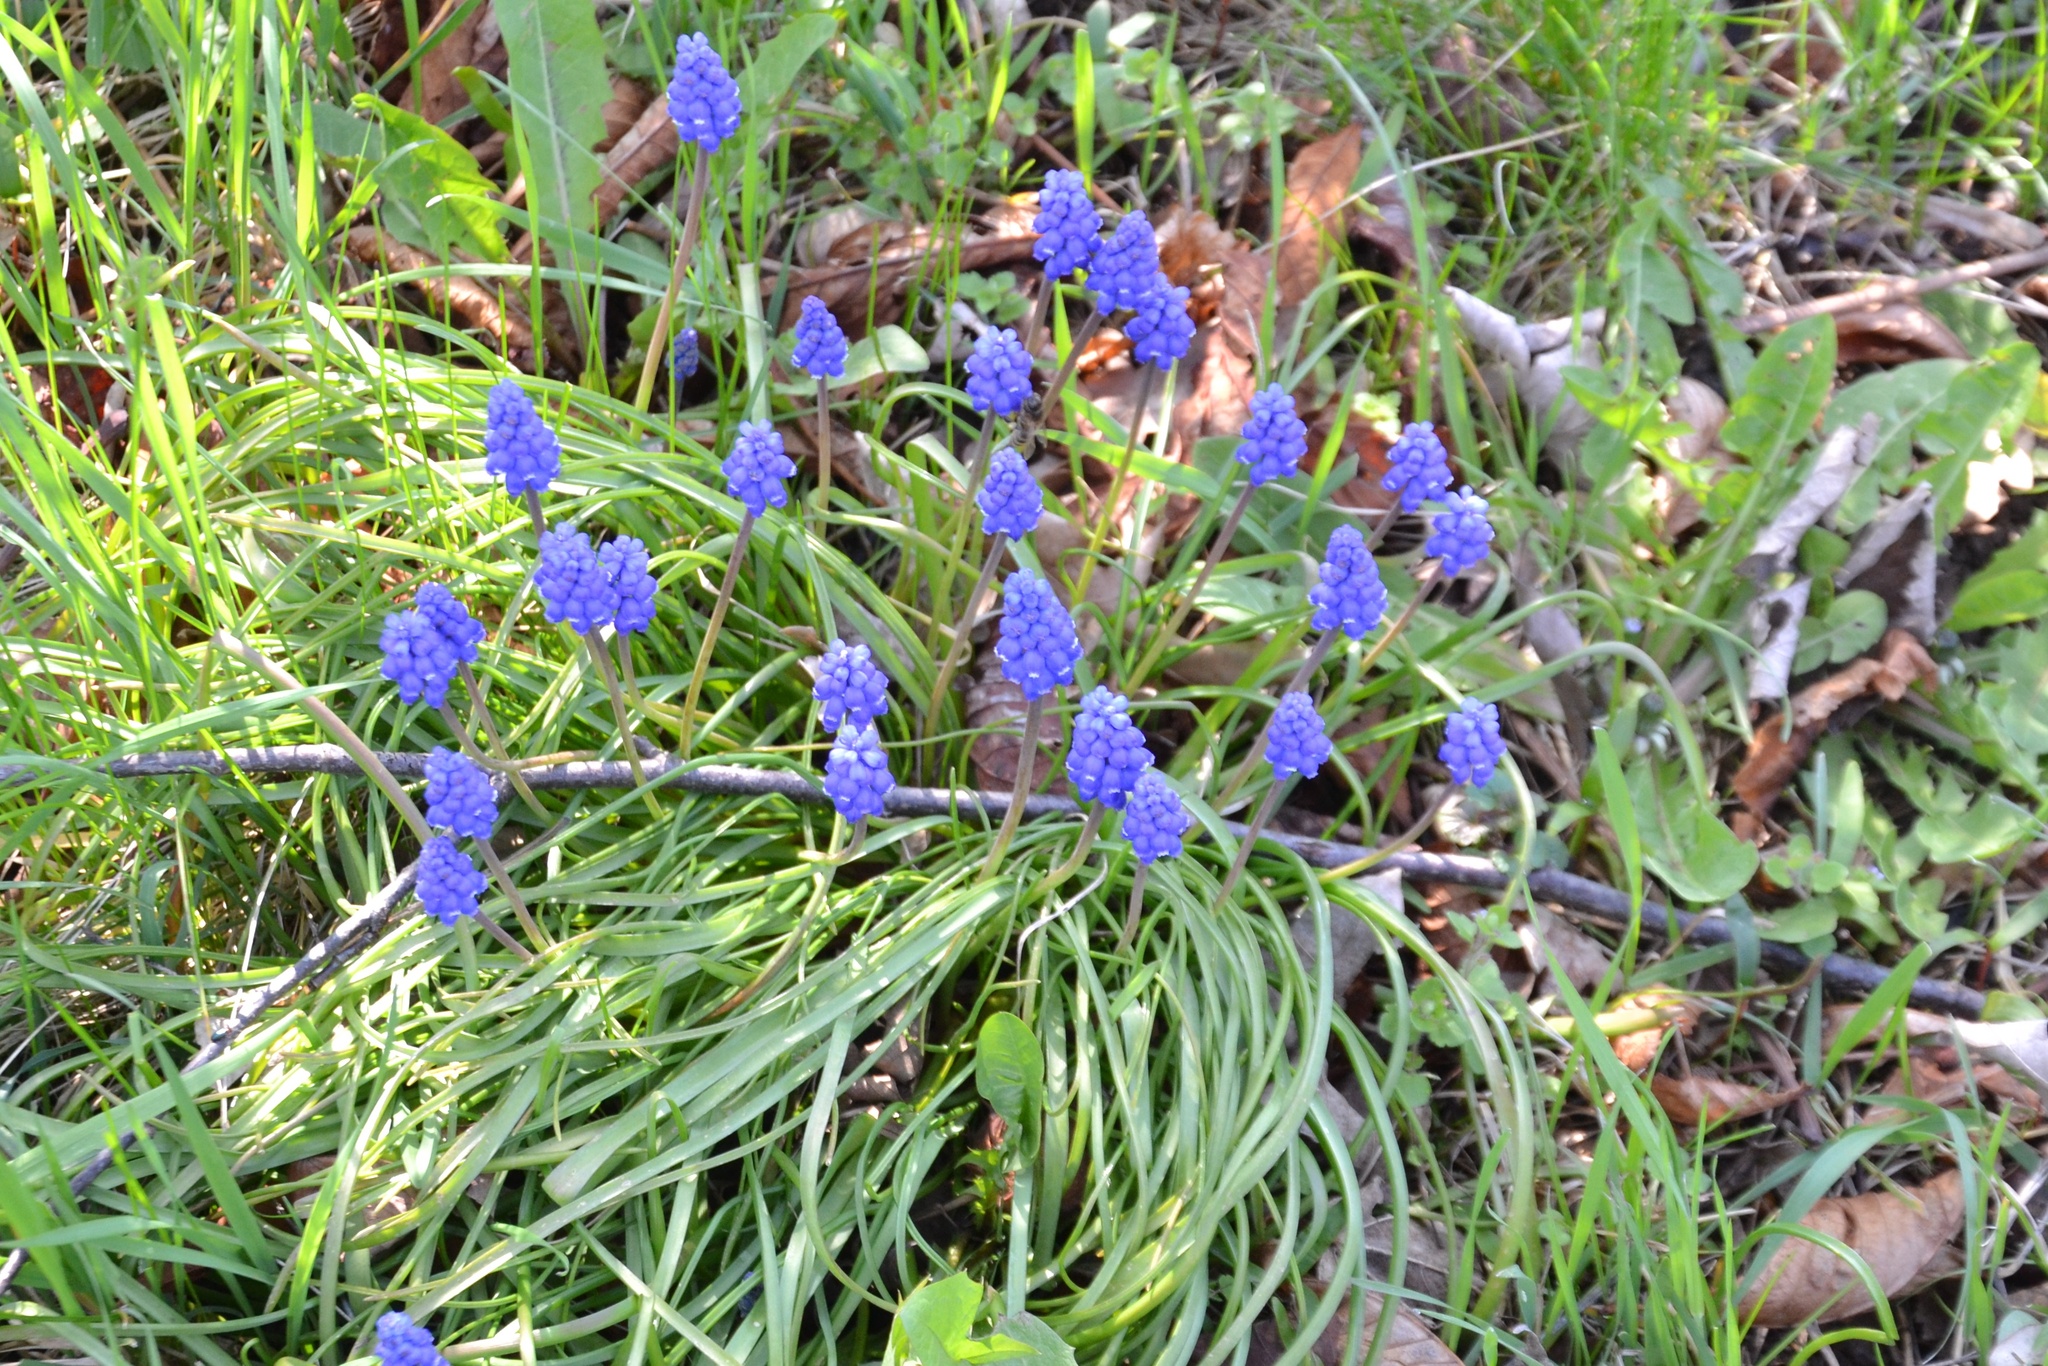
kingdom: Plantae
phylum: Tracheophyta
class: Liliopsida
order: Asparagales
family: Asparagaceae
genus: Muscari
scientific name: Muscari armeniacum
